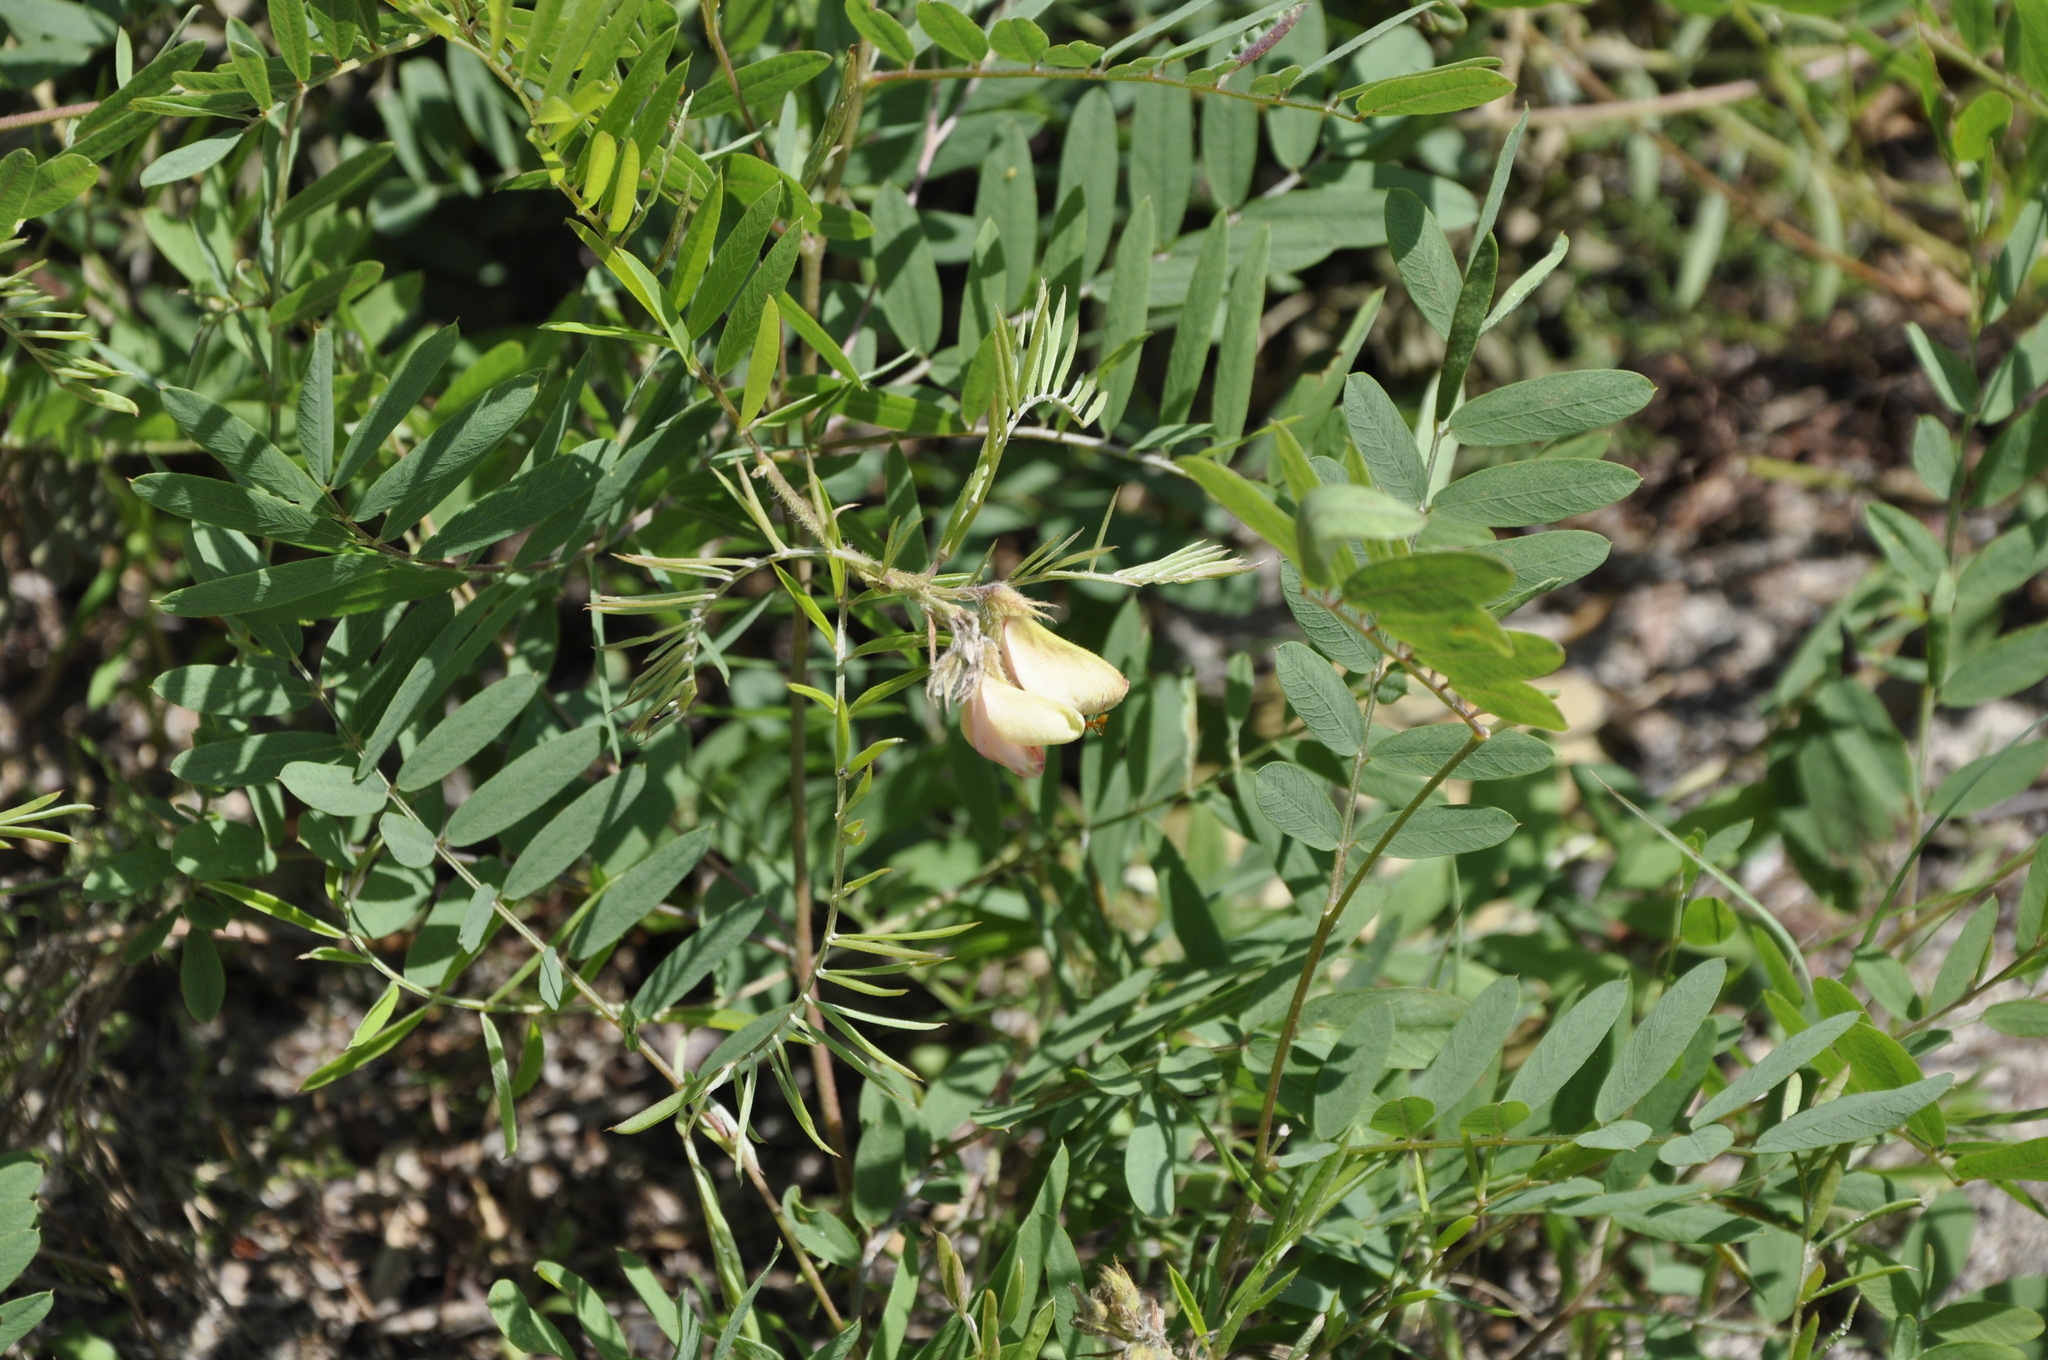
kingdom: Plantae
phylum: Tracheophyta
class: Magnoliopsida
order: Fabales
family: Fabaceae
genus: Tephrosia
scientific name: Tephrosia virginiana
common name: Rabbit-pea
